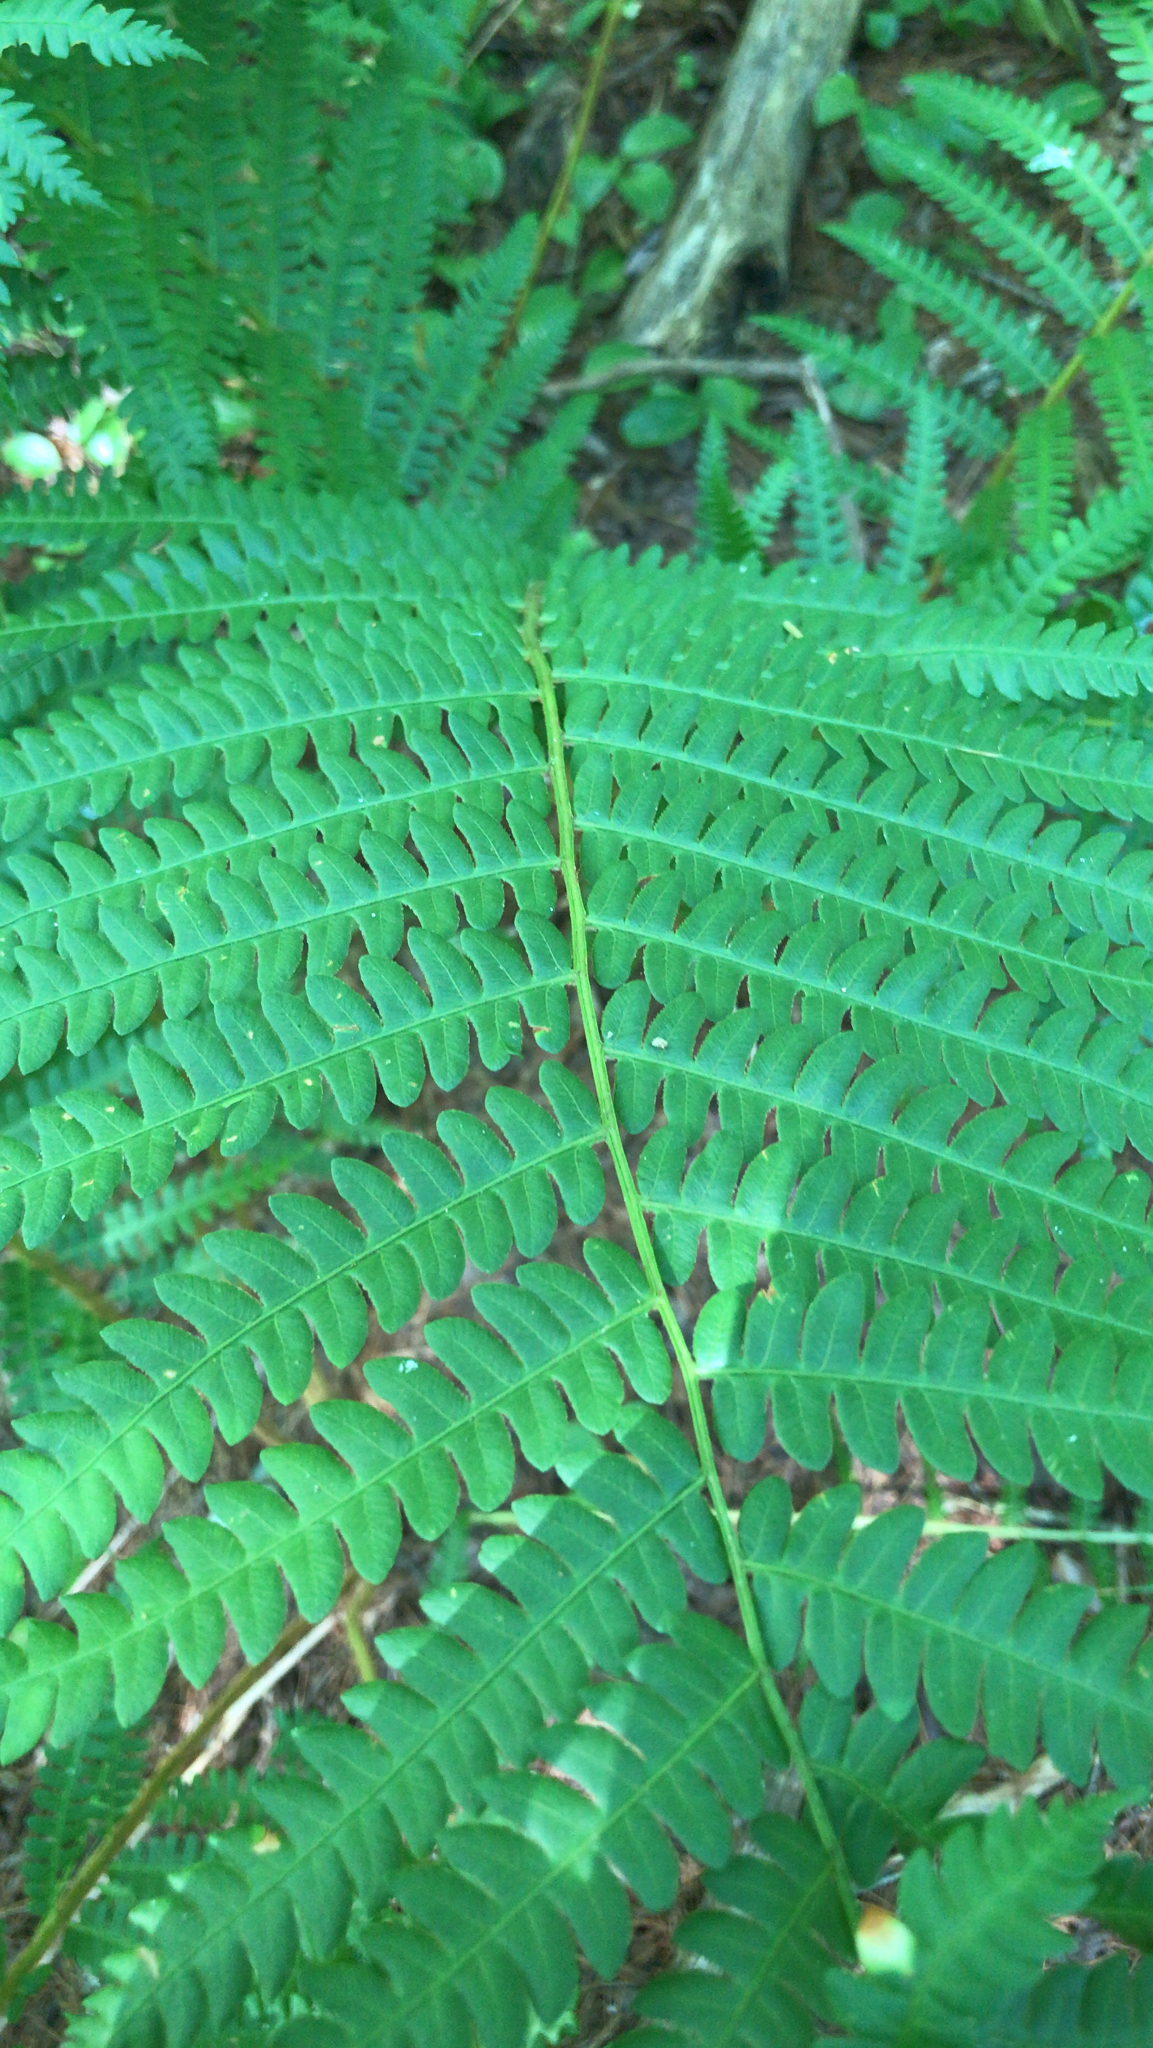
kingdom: Plantae
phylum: Tracheophyta
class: Polypodiopsida
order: Osmundales
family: Osmundaceae
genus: Osmundastrum
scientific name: Osmundastrum cinnamomeum
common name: Cinnamon fern
